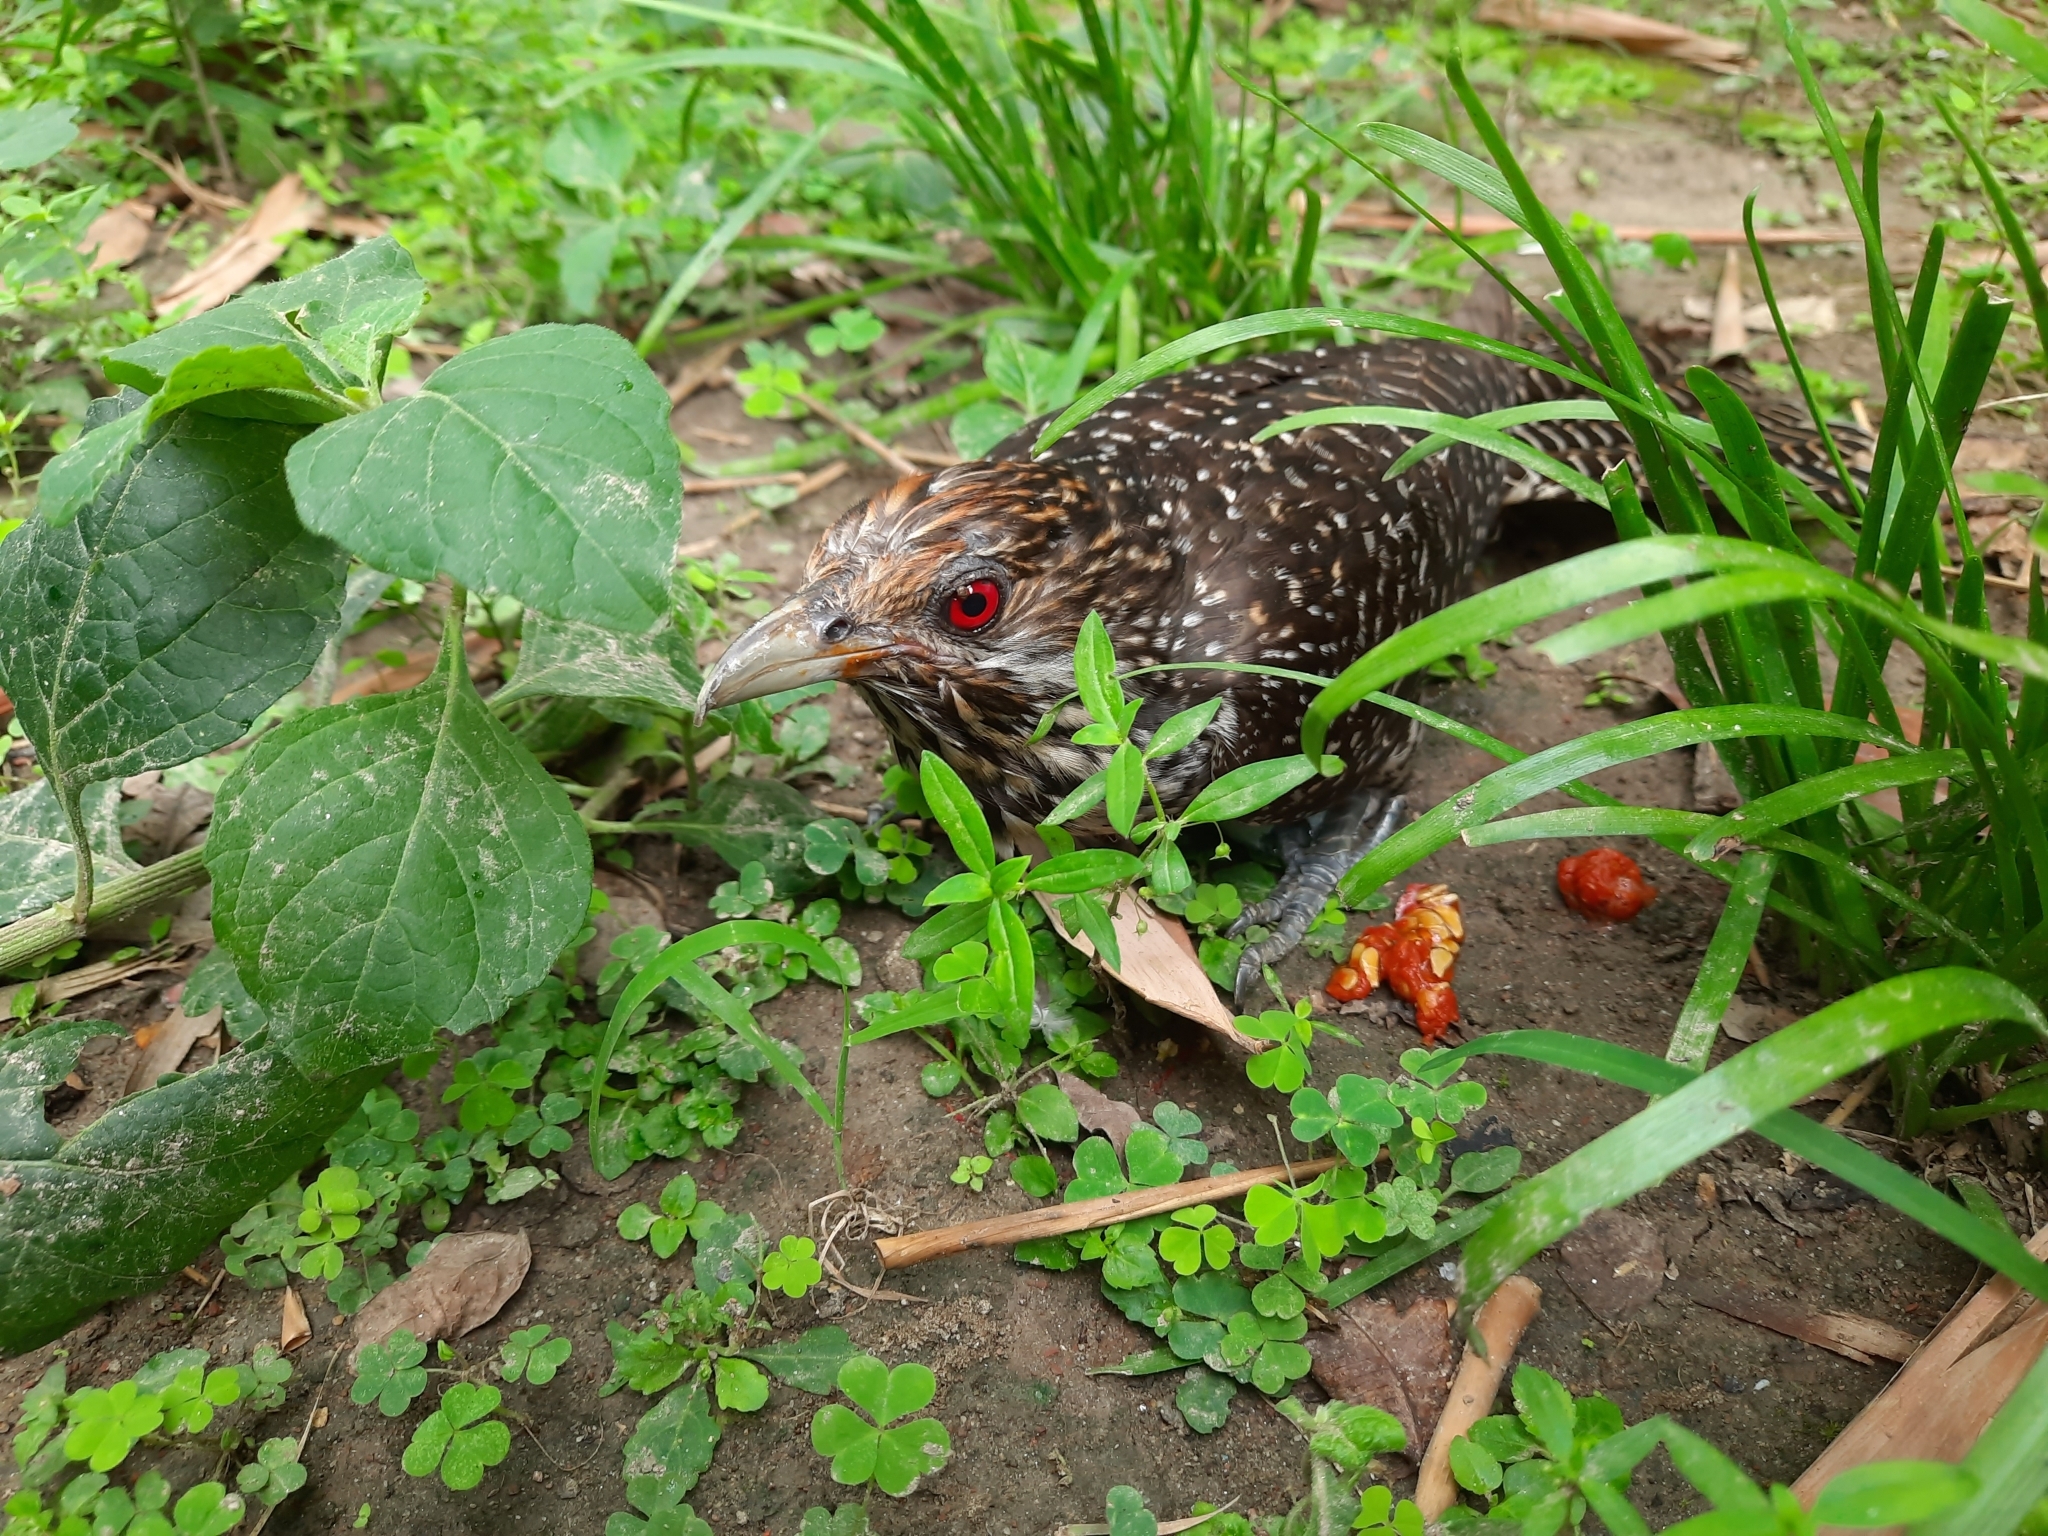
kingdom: Animalia
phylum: Chordata
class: Aves
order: Cuculiformes
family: Cuculidae
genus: Eudynamys
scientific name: Eudynamys scolopaceus
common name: Asian koel
